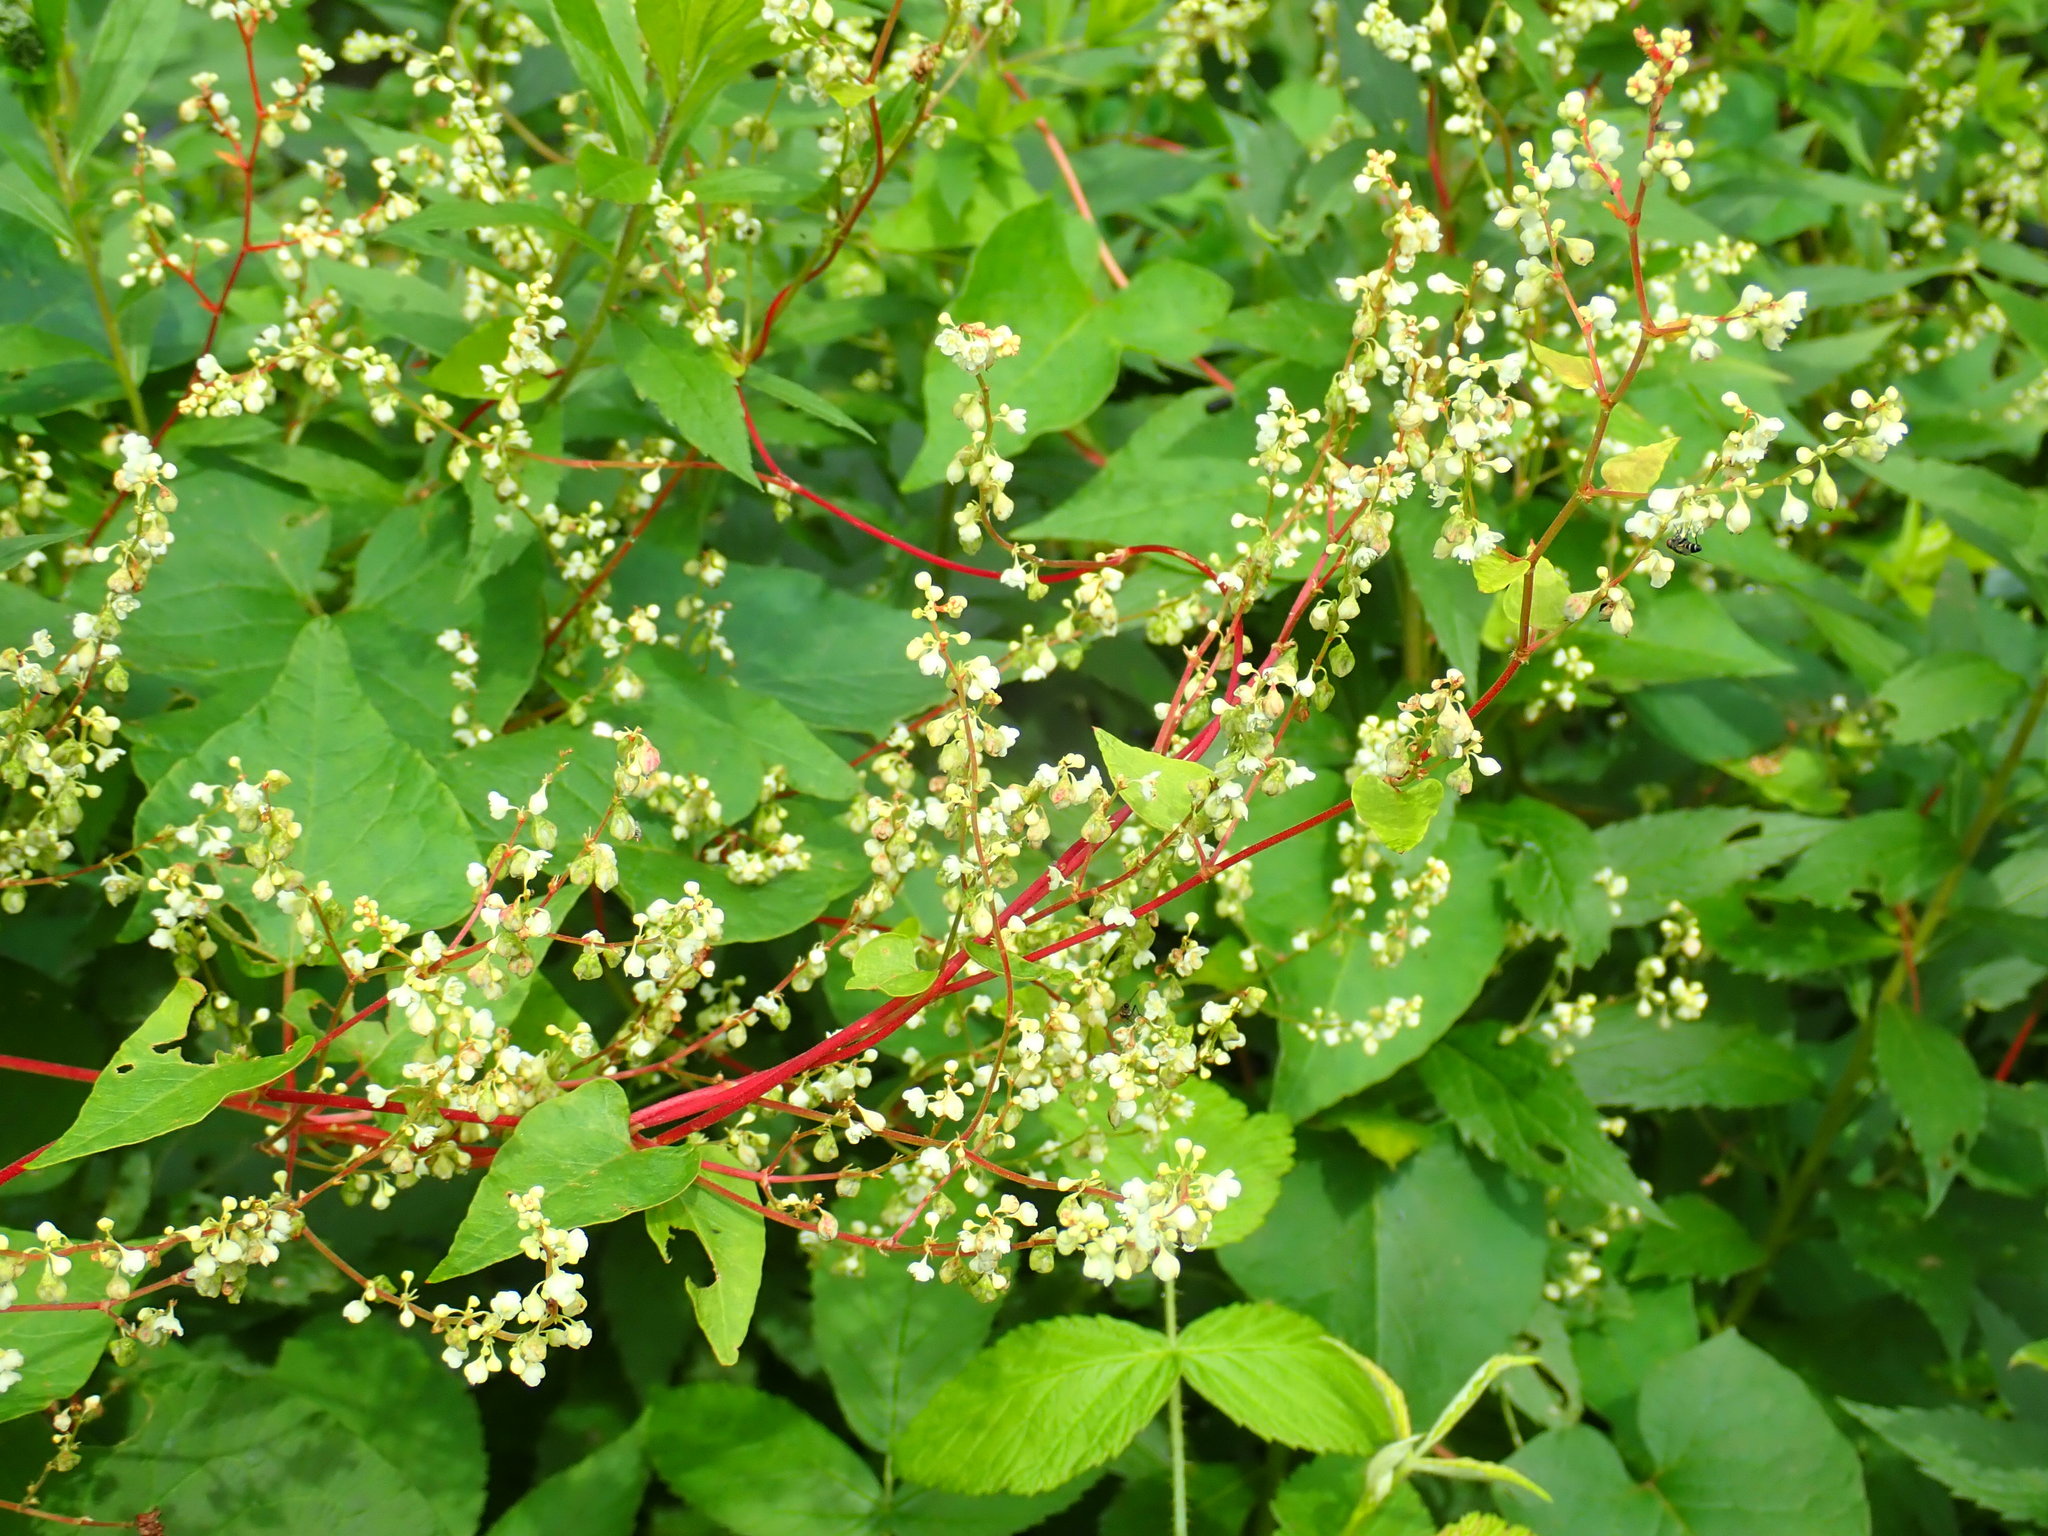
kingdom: Plantae
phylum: Tracheophyta
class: Magnoliopsida
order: Caryophyllales
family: Polygonaceae
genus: Fallopia
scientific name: Fallopia
